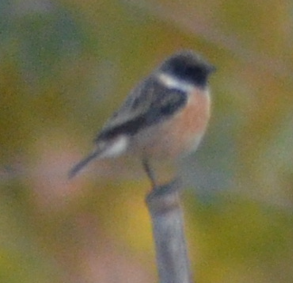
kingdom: Animalia
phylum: Chordata
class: Aves
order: Passeriformes
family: Muscicapidae
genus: Saxicola
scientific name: Saxicola rubicola
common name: European stonechat
